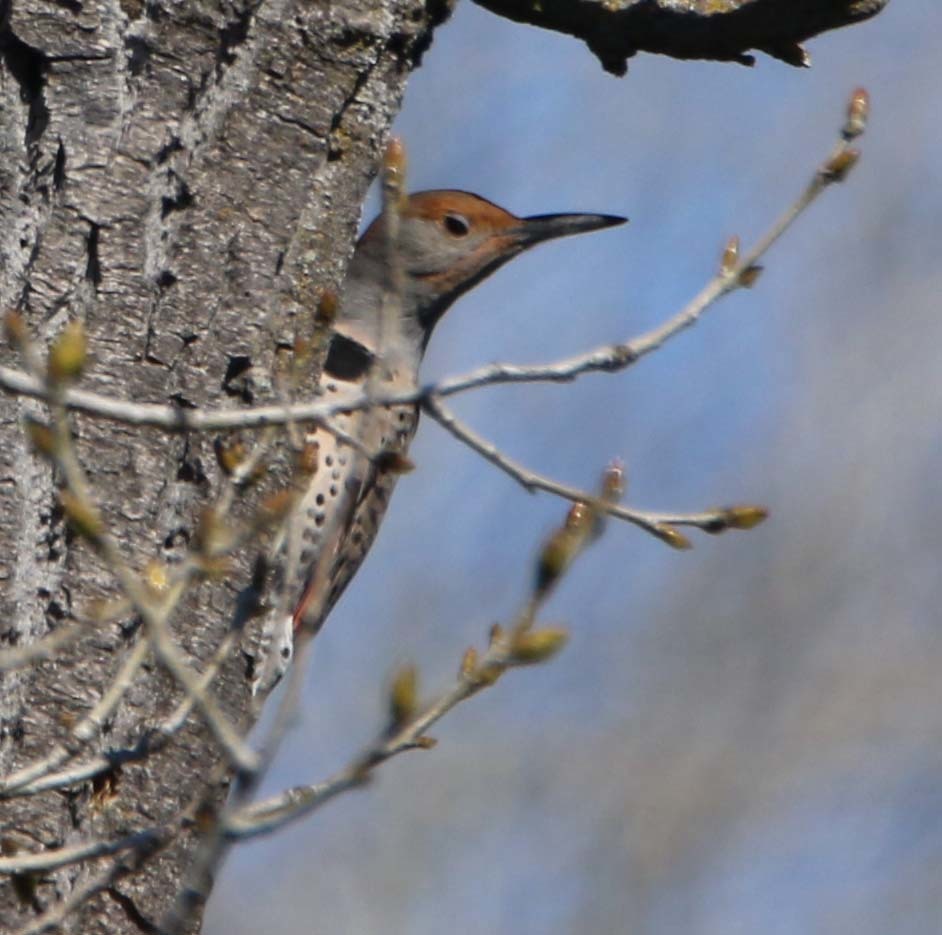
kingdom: Animalia
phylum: Chordata
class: Aves
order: Piciformes
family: Picidae
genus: Colaptes
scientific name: Colaptes auratus
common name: Northern flicker
